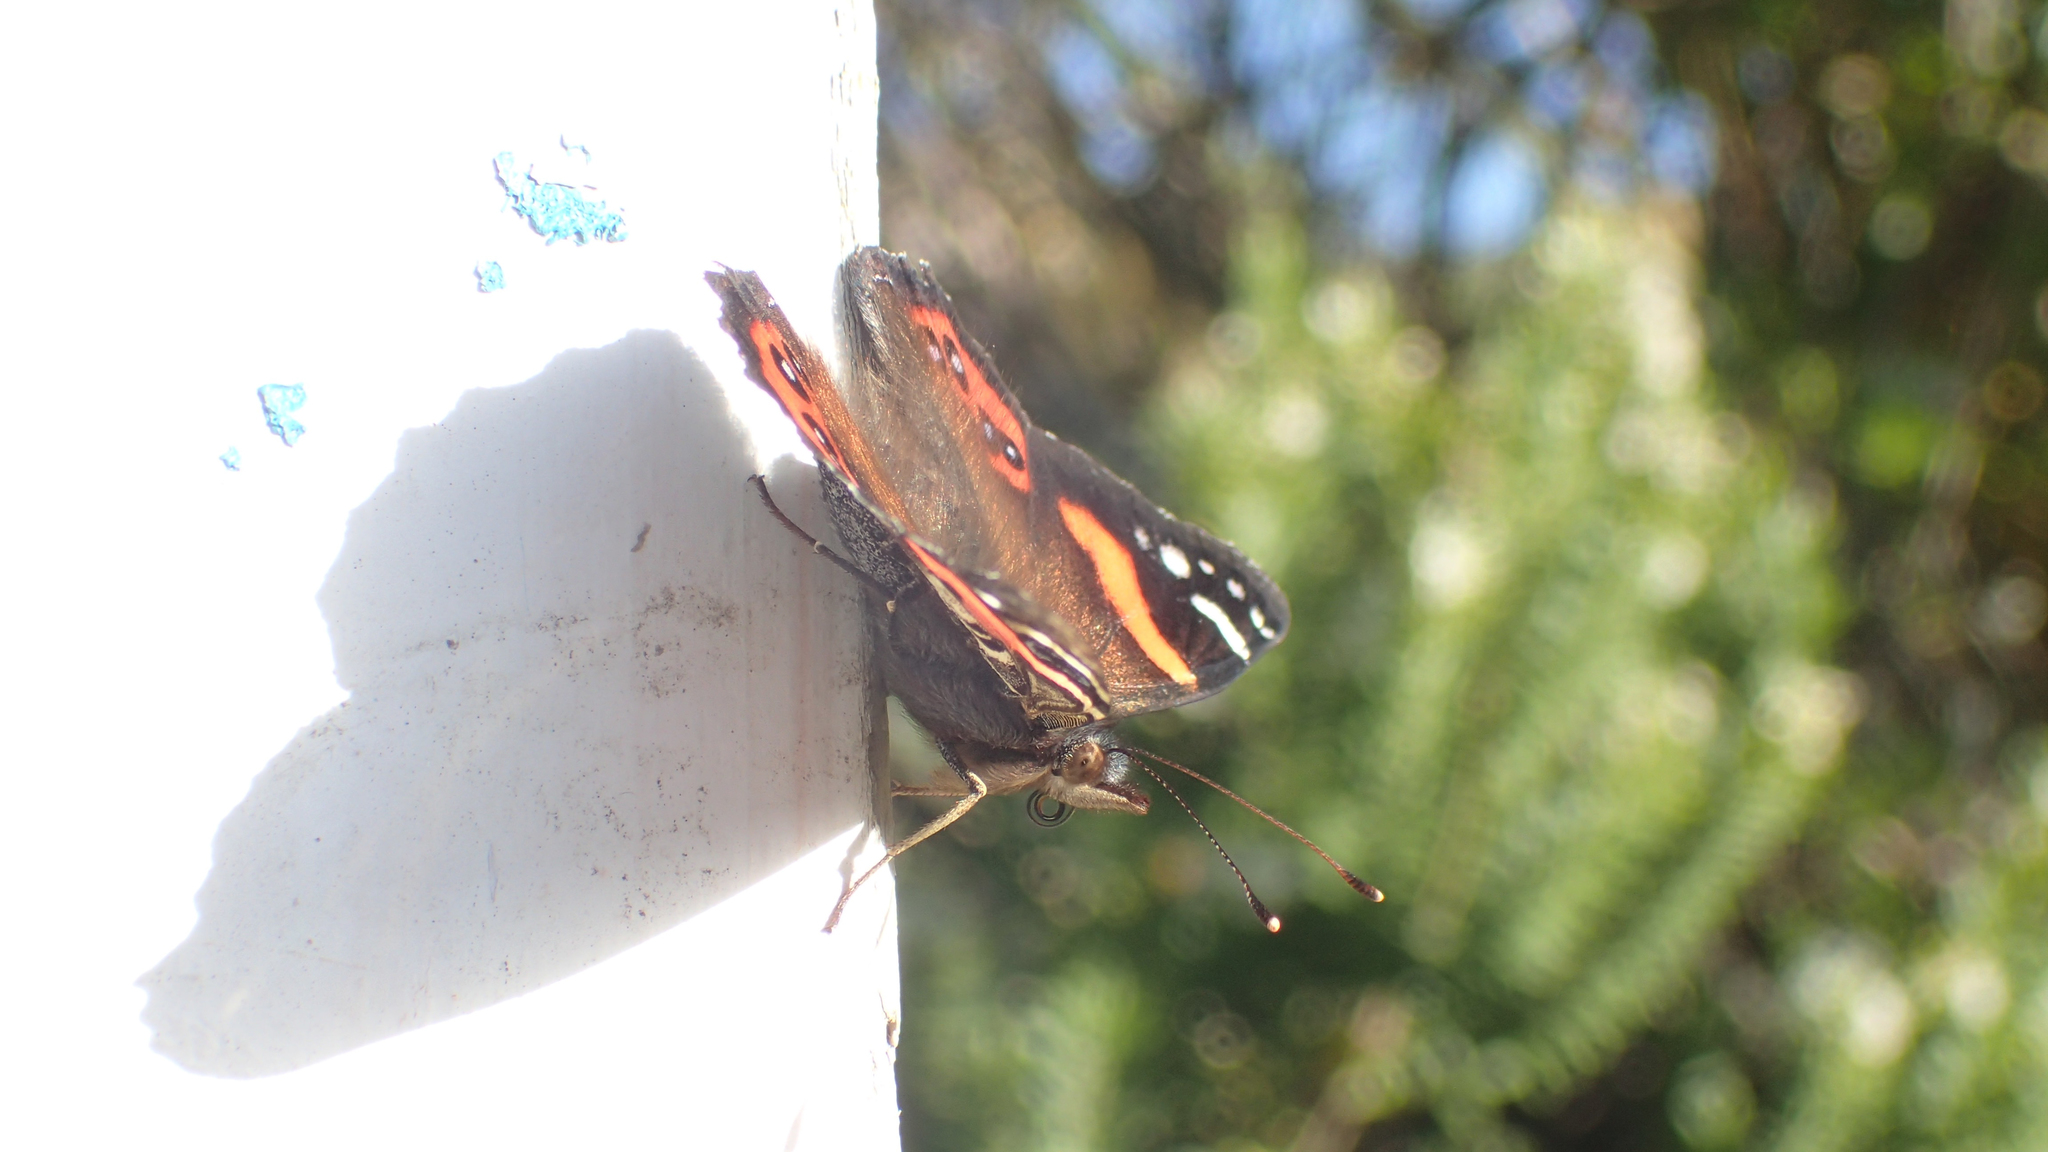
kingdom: Animalia
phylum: Arthropoda
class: Insecta
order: Lepidoptera
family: Nymphalidae
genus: Vanessa
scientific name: Vanessa gonerilla
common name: New zealand red admiral
